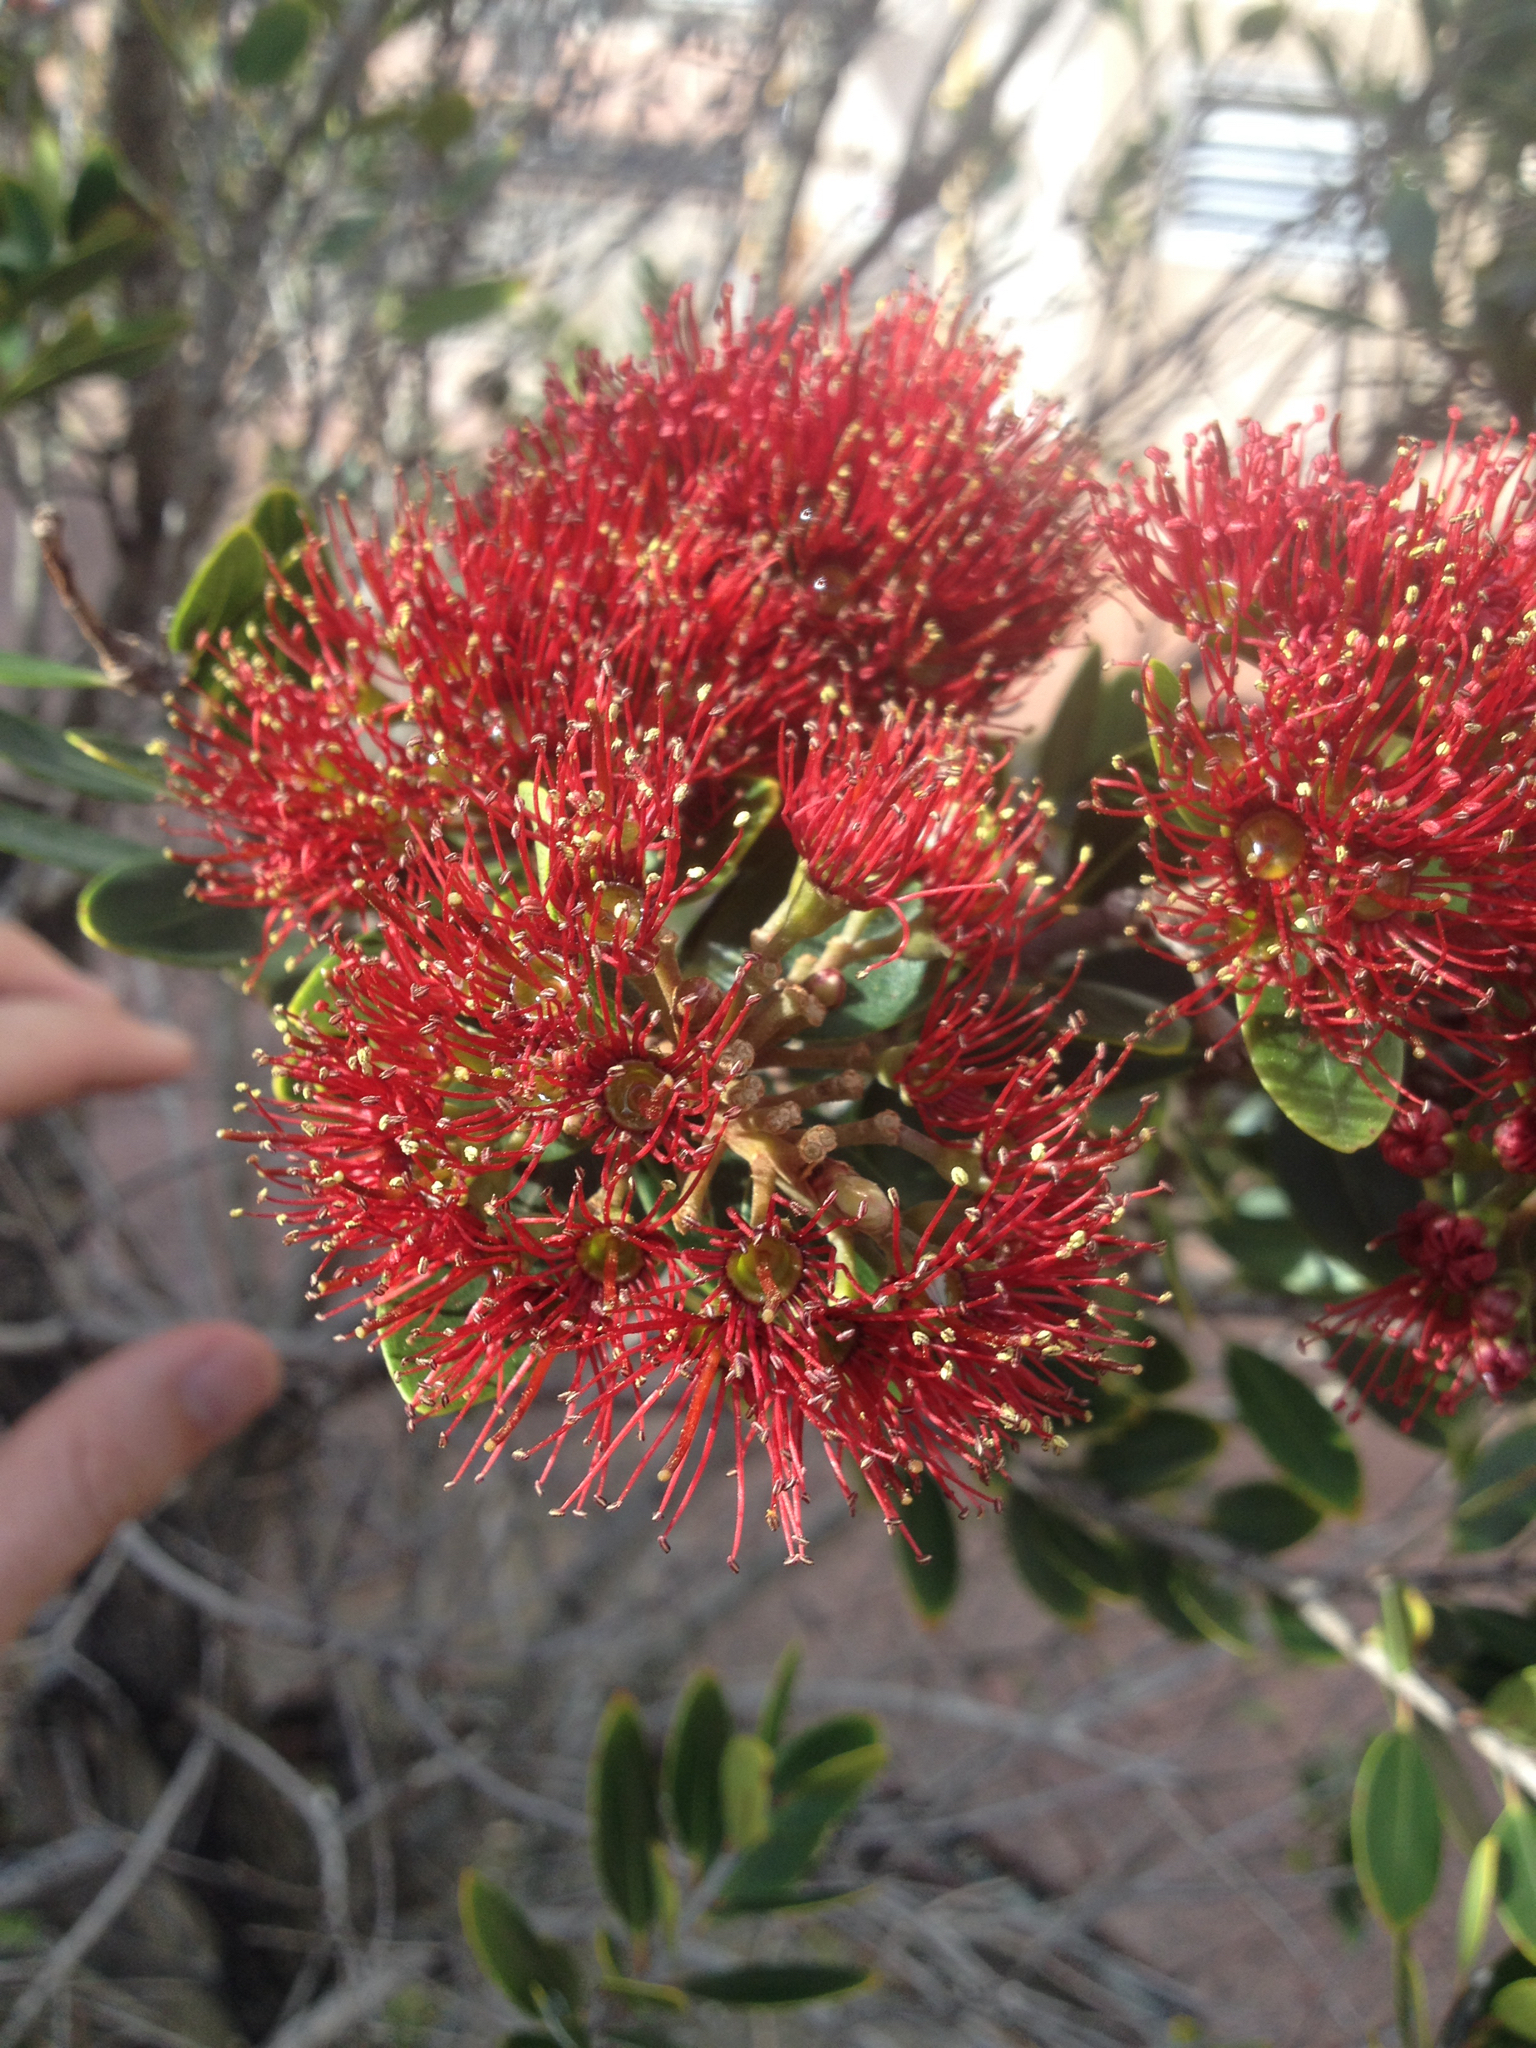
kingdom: Plantae
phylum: Tracheophyta
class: Magnoliopsida
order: Myrtales
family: Myrtaceae
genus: Metrosideros
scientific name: Metrosideros robusta
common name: Northern rata
